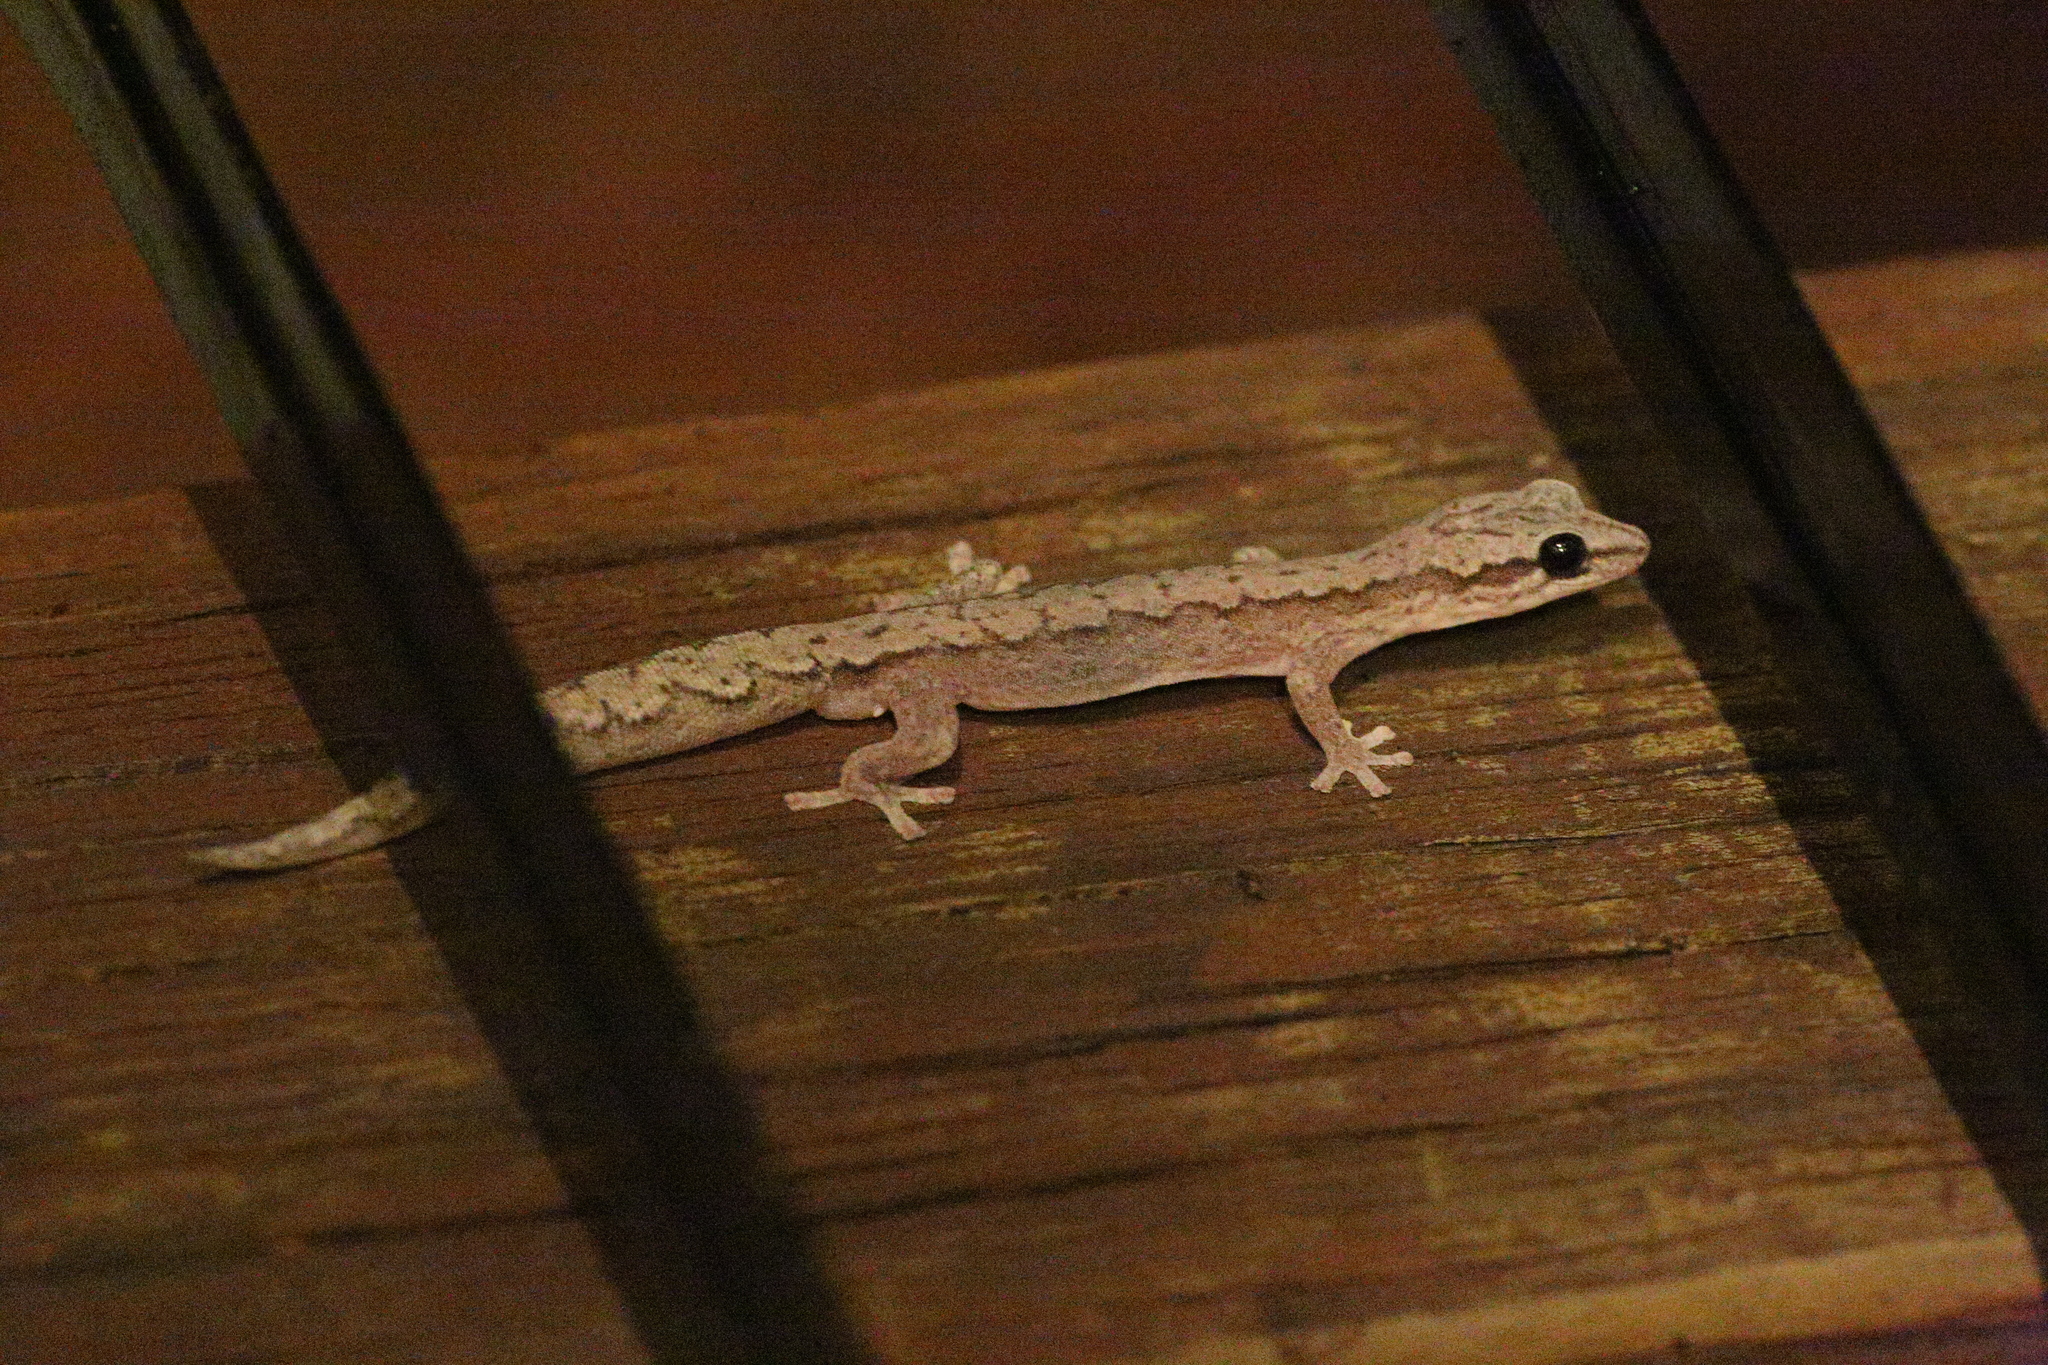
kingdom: Animalia
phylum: Chordata
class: Squamata
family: Diplodactylidae
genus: Hesperoedura
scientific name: Hesperoedura reticulata
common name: Reticulated velvet gecko
